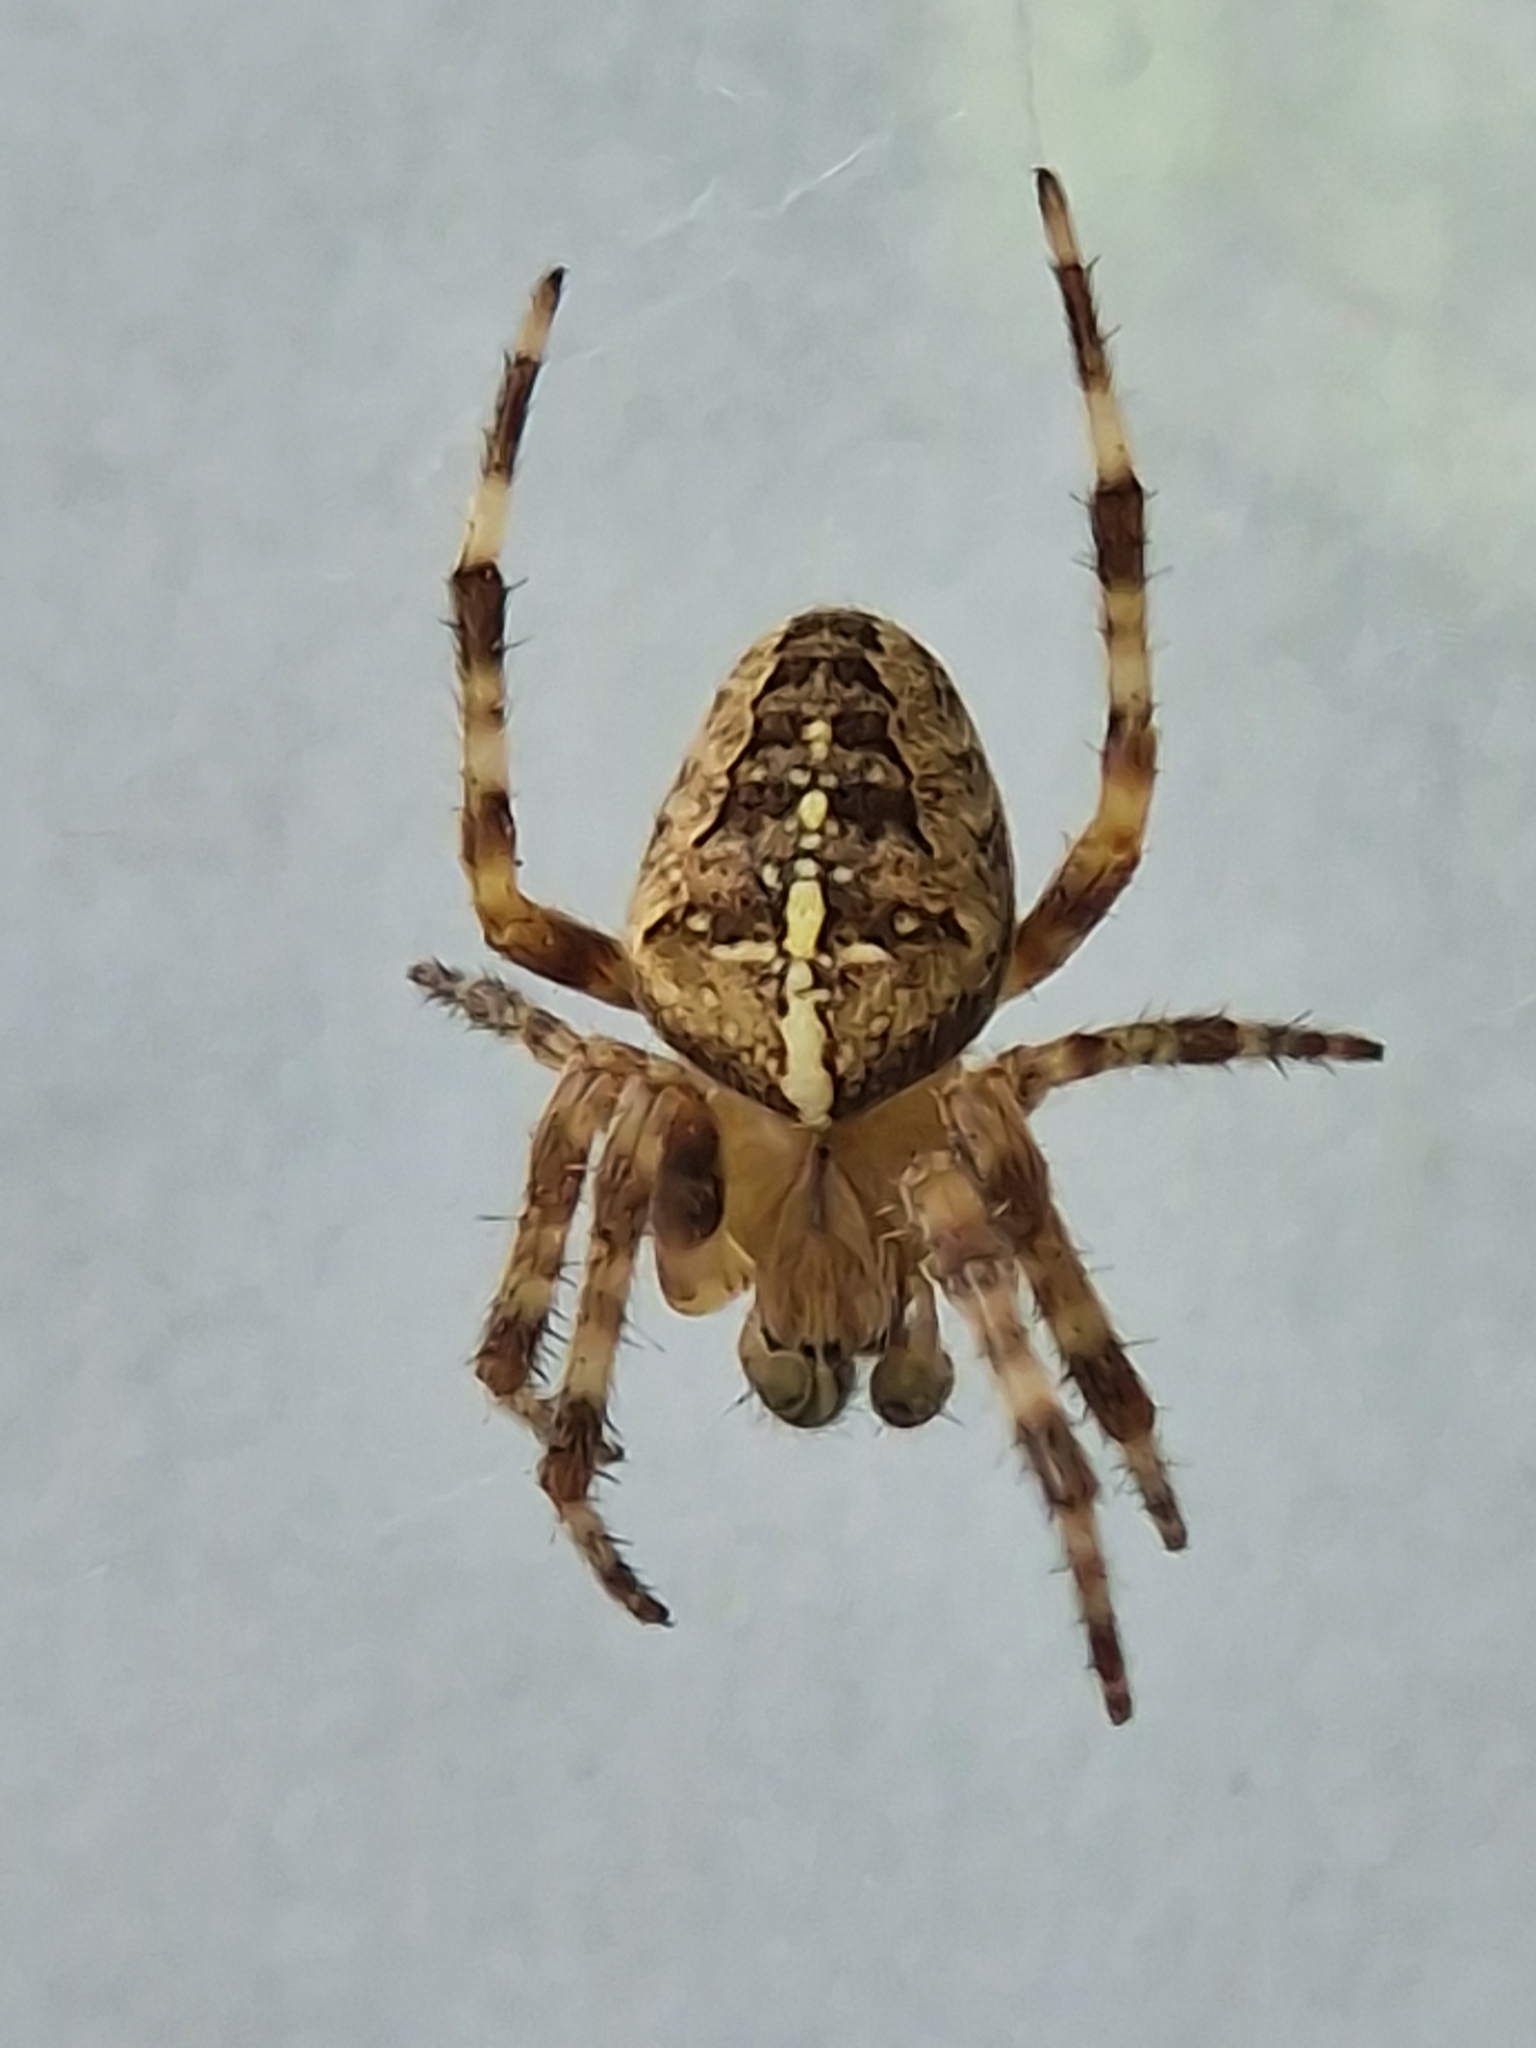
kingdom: Animalia
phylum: Arthropoda
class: Arachnida
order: Araneae
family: Araneidae
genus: Araneus
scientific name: Araneus diadematus
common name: Cross orbweaver
